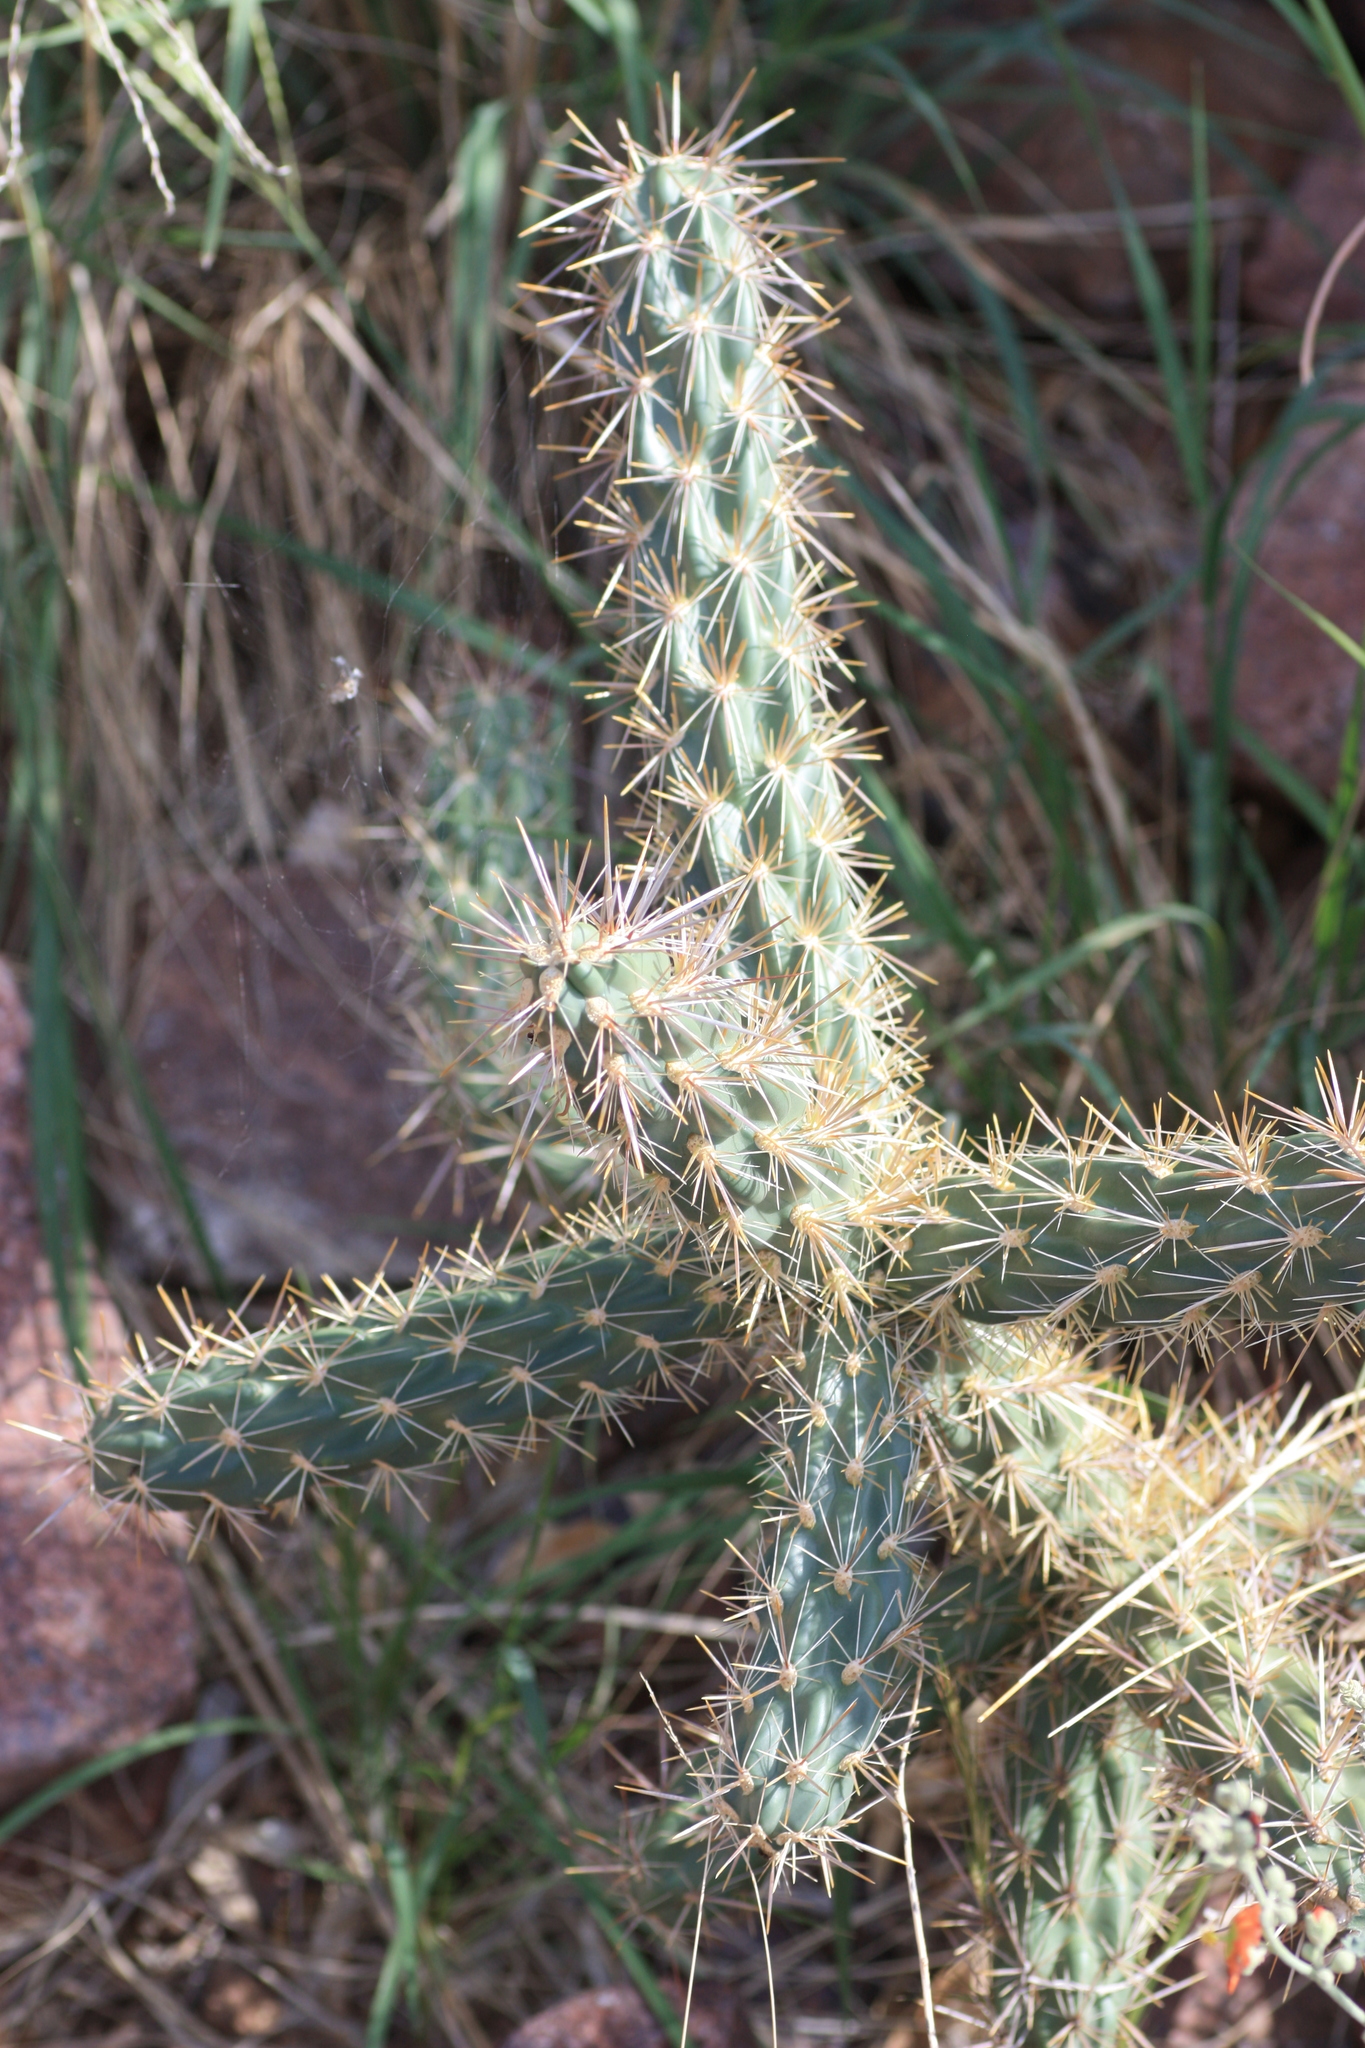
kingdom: Plantae
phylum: Tracheophyta
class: Magnoliopsida
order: Caryophyllales
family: Cactaceae
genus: Cylindropuntia
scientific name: Cylindropuntia imbricata
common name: Candelabrum cactus
